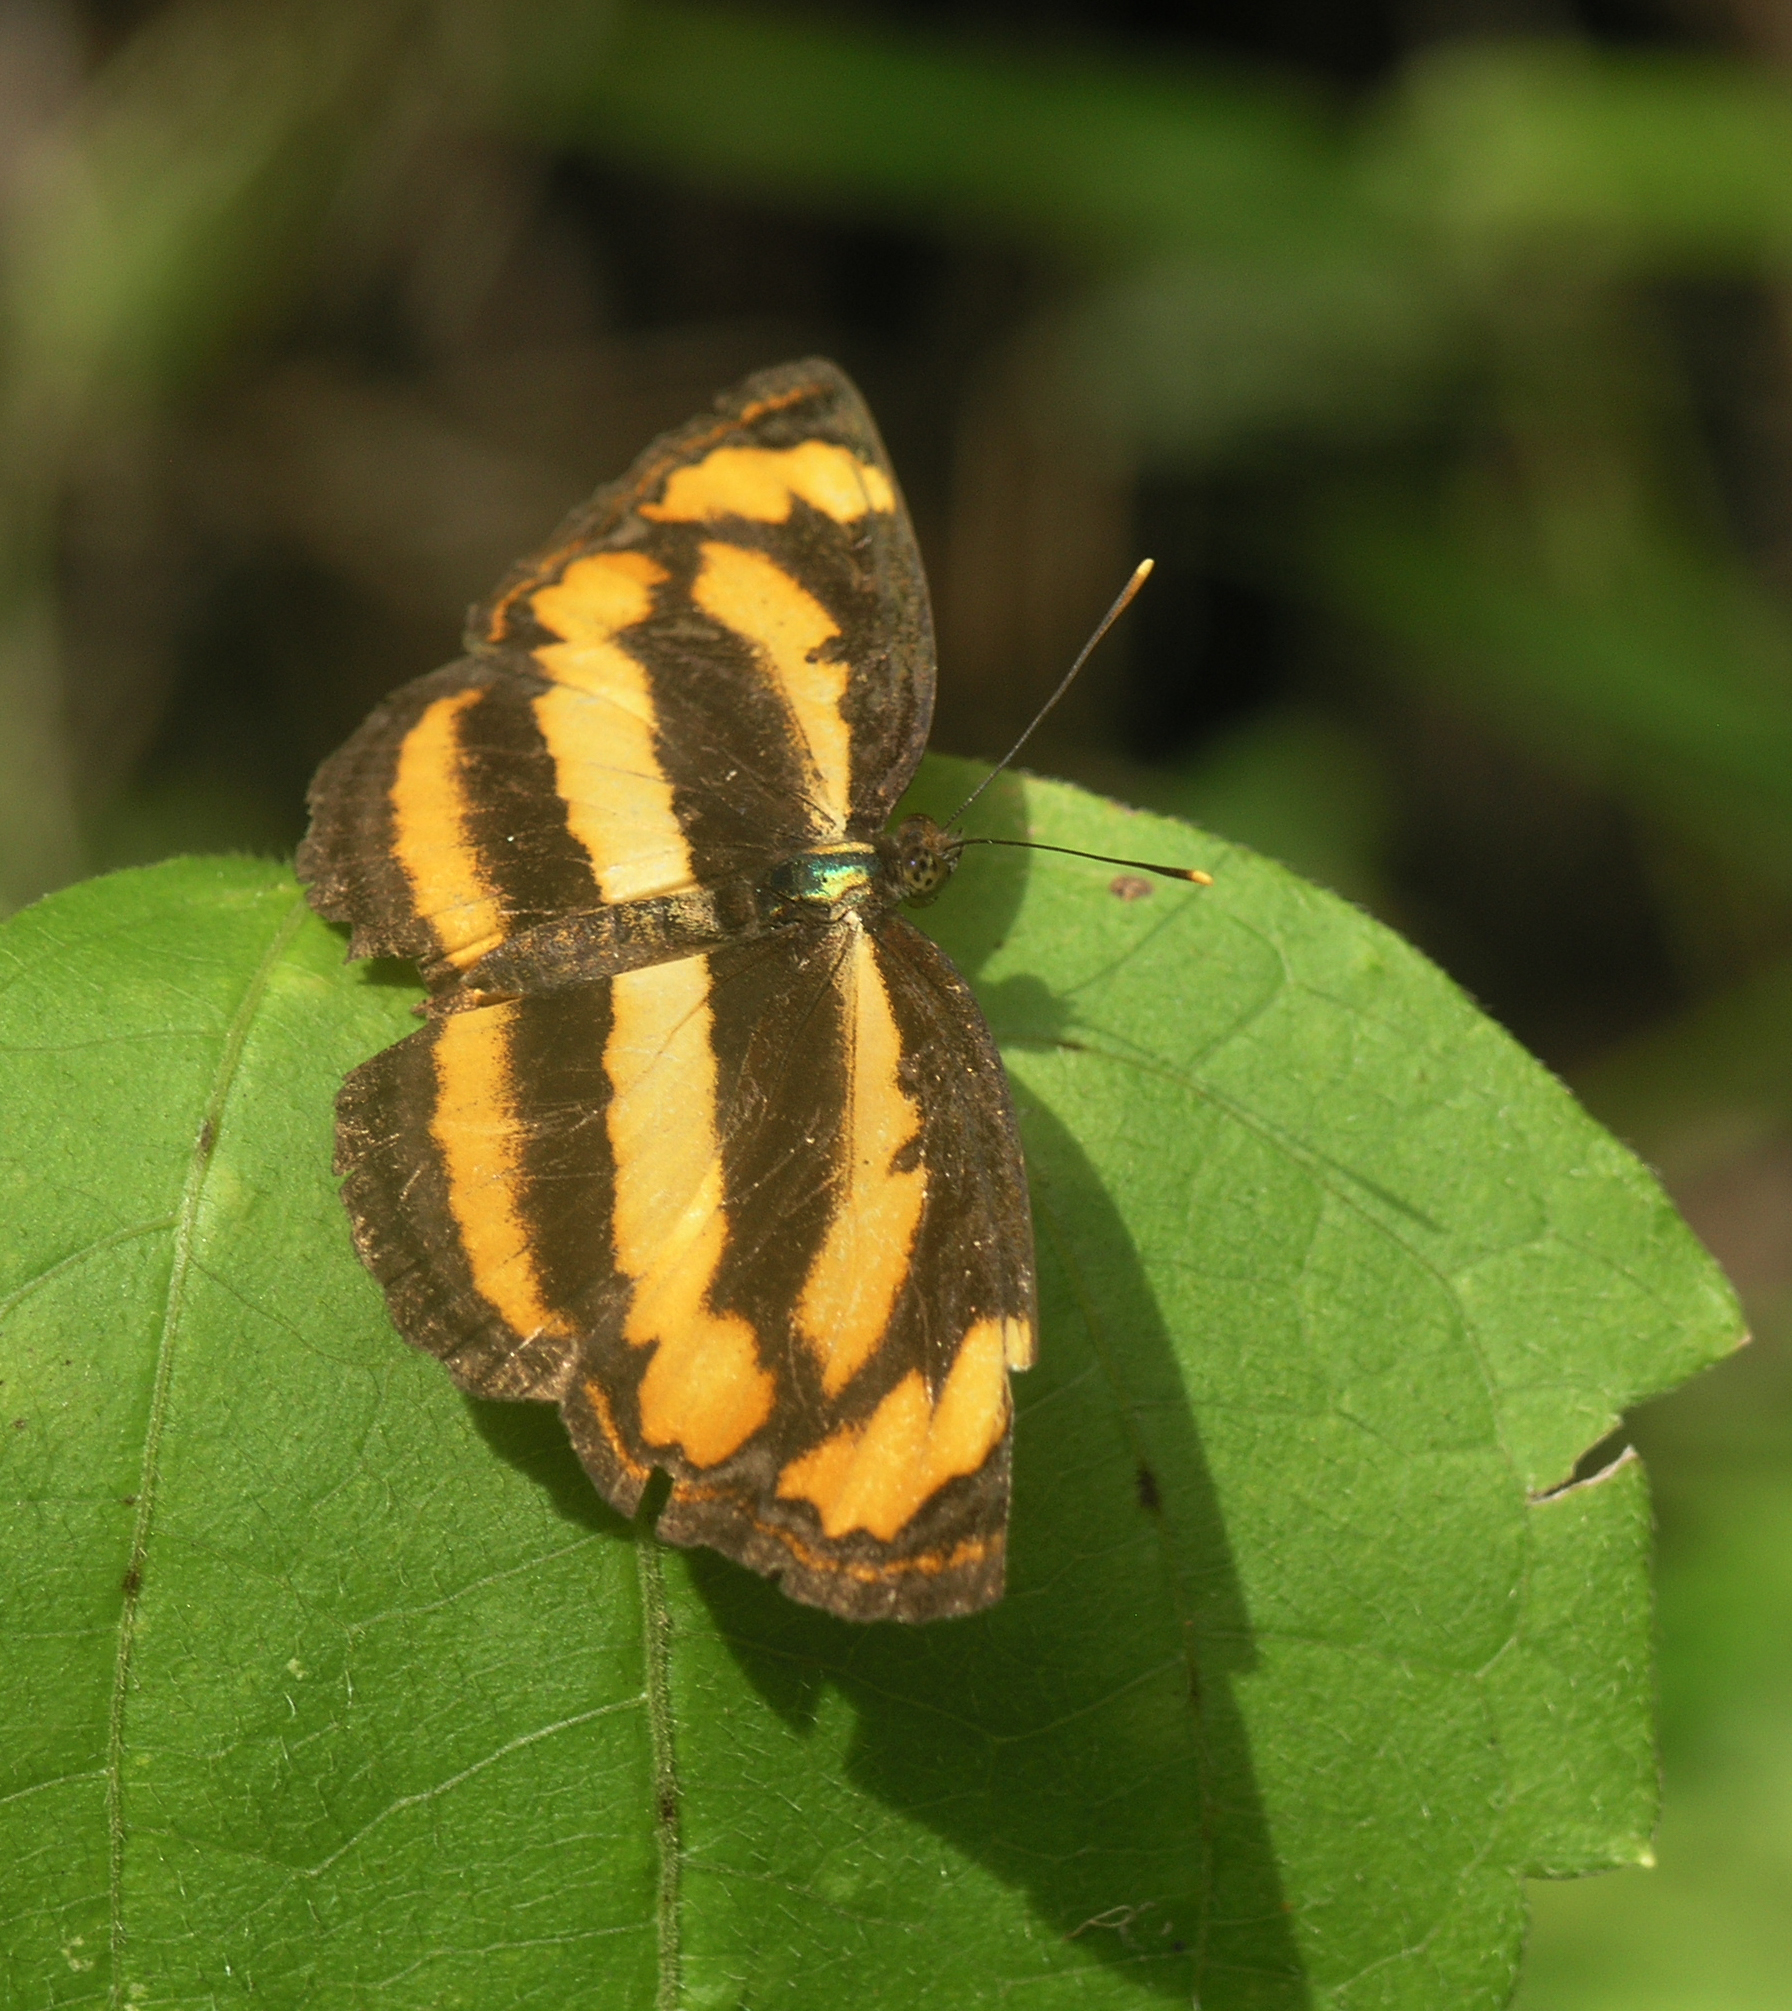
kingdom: Animalia
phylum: Arthropoda
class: Insecta
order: Lepidoptera
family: Nymphalidae
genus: Pantoporia
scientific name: Pantoporia hordonia
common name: Common lascar
